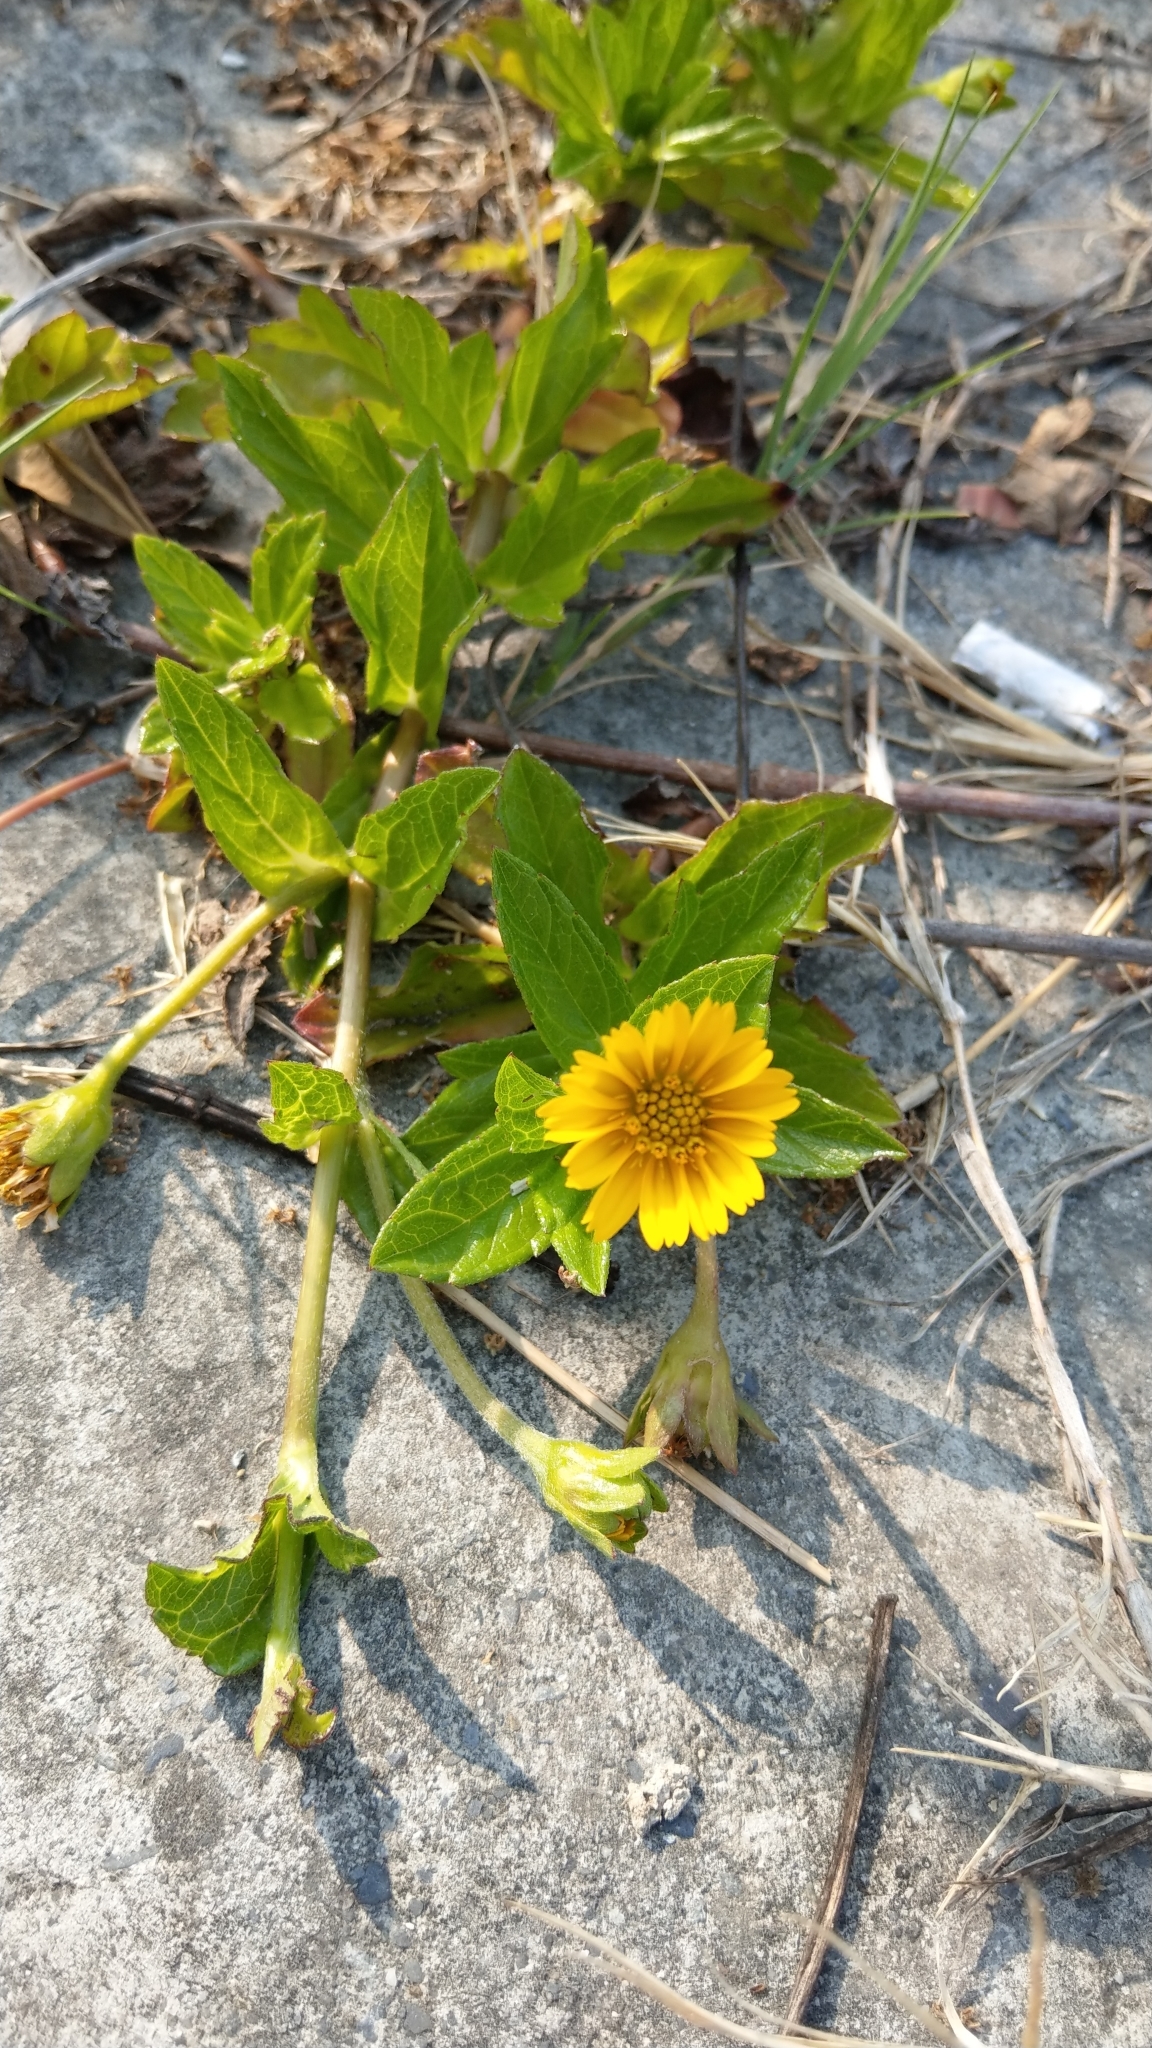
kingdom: Plantae
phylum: Tracheophyta
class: Magnoliopsida
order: Asterales
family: Asteraceae
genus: Sphagneticola
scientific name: Sphagneticola trilobata
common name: Bay biscayne creeping-oxeye
